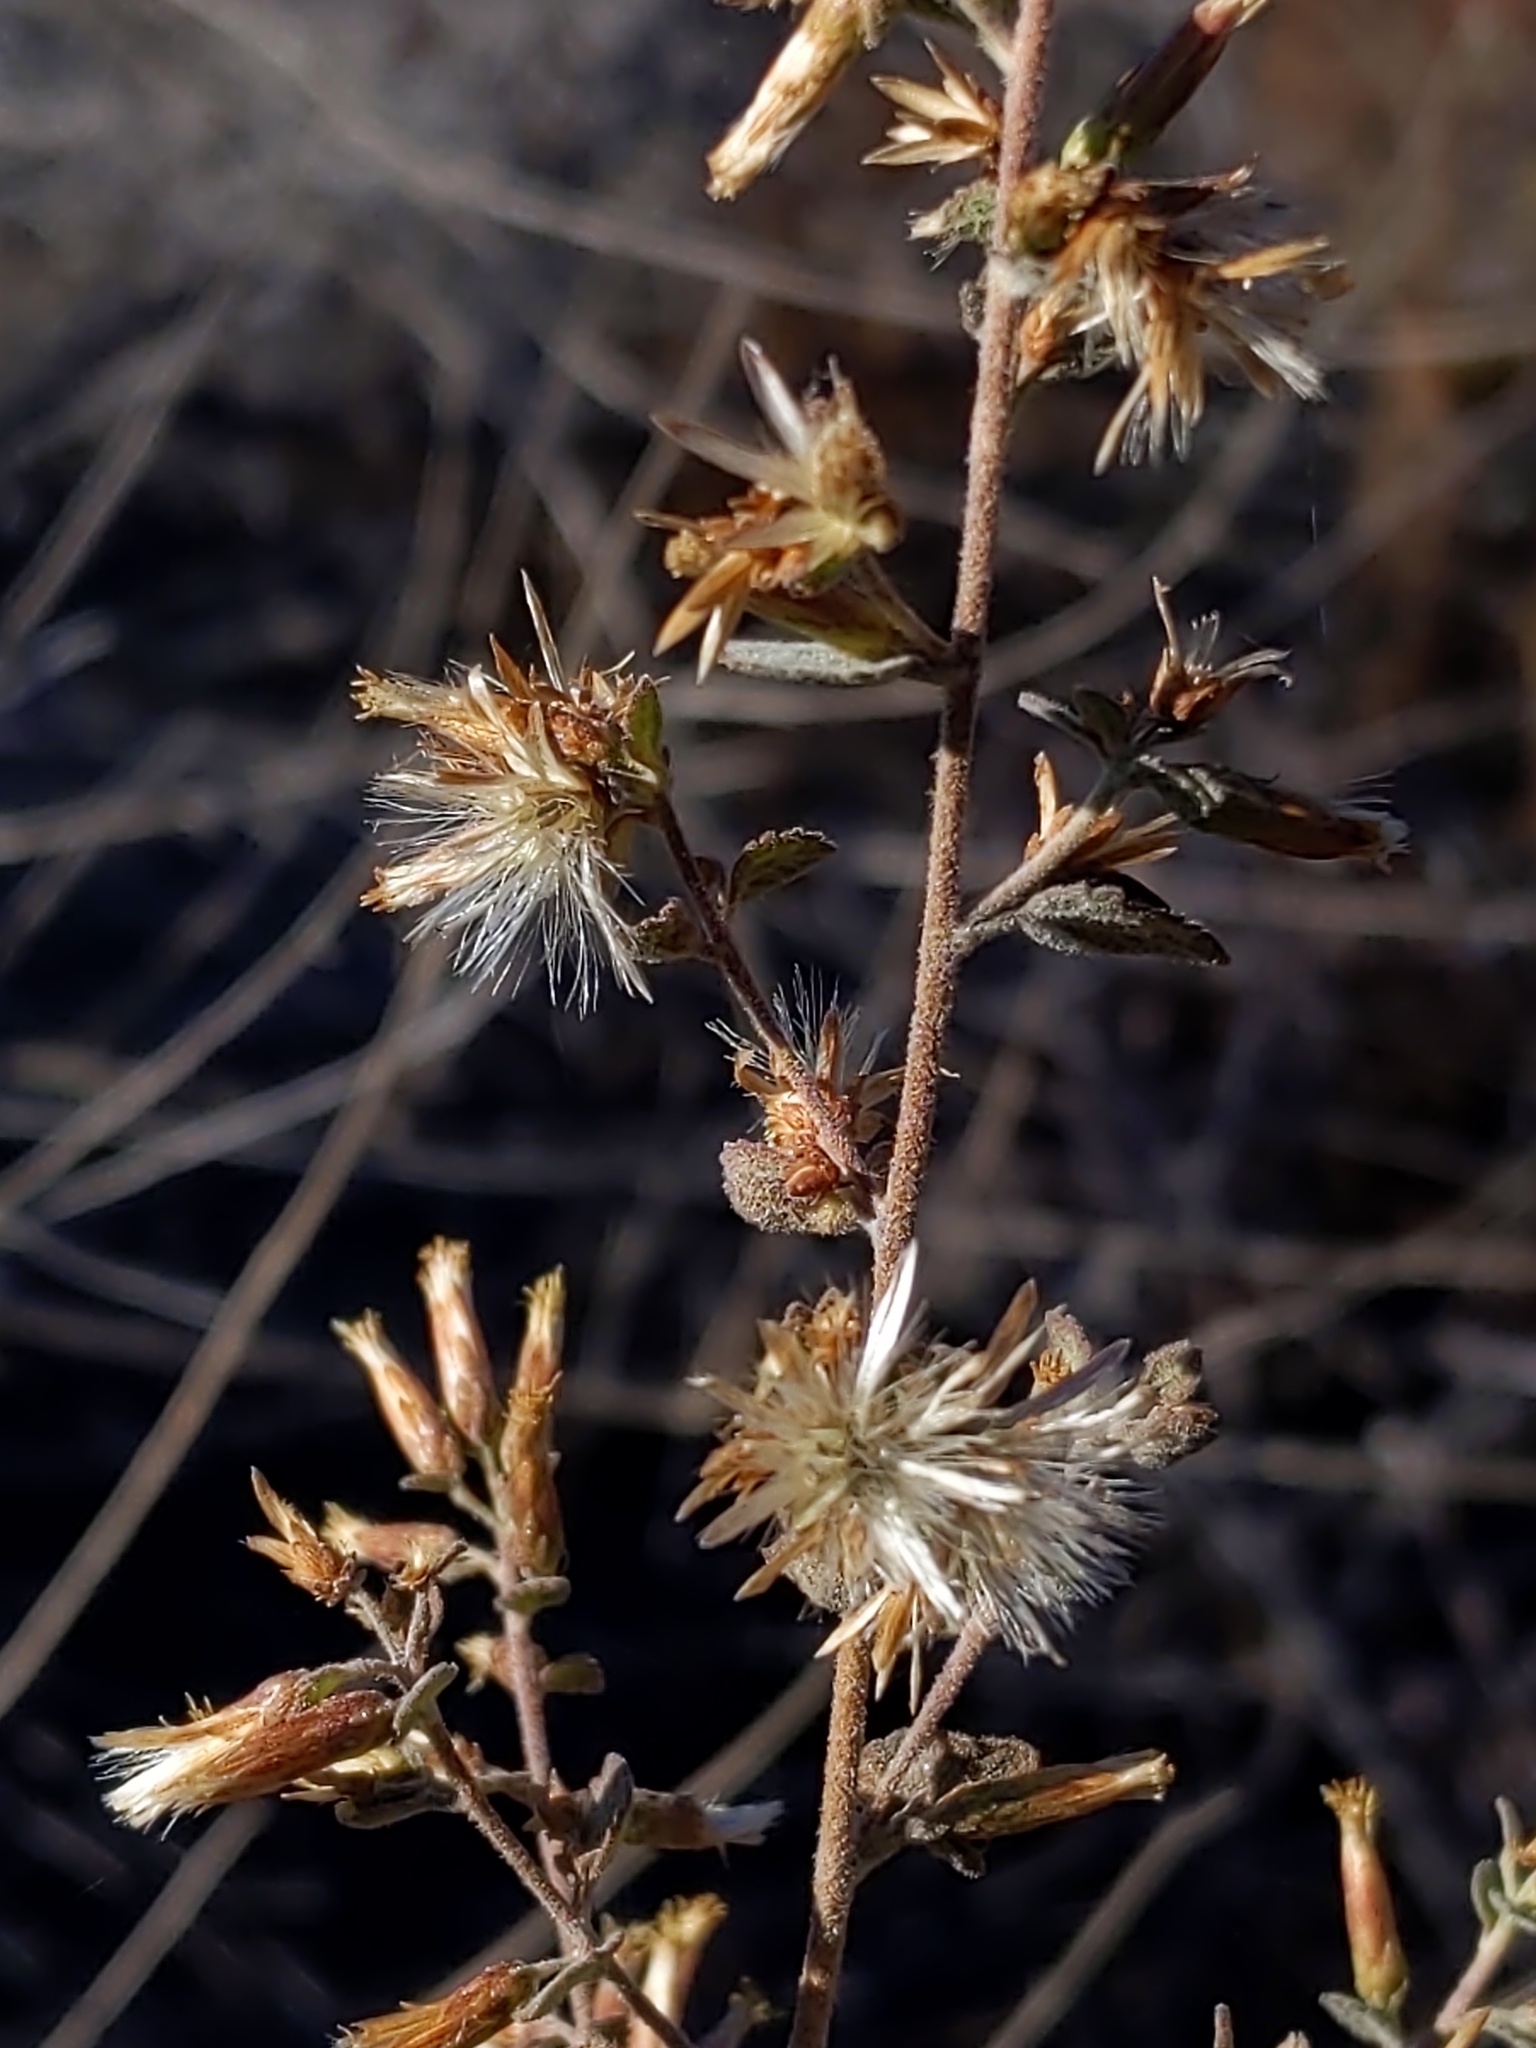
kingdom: Plantae
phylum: Tracheophyta
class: Magnoliopsida
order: Asterales
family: Asteraceae
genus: Brickellia
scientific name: Brickellia californica
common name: California brickellbush
